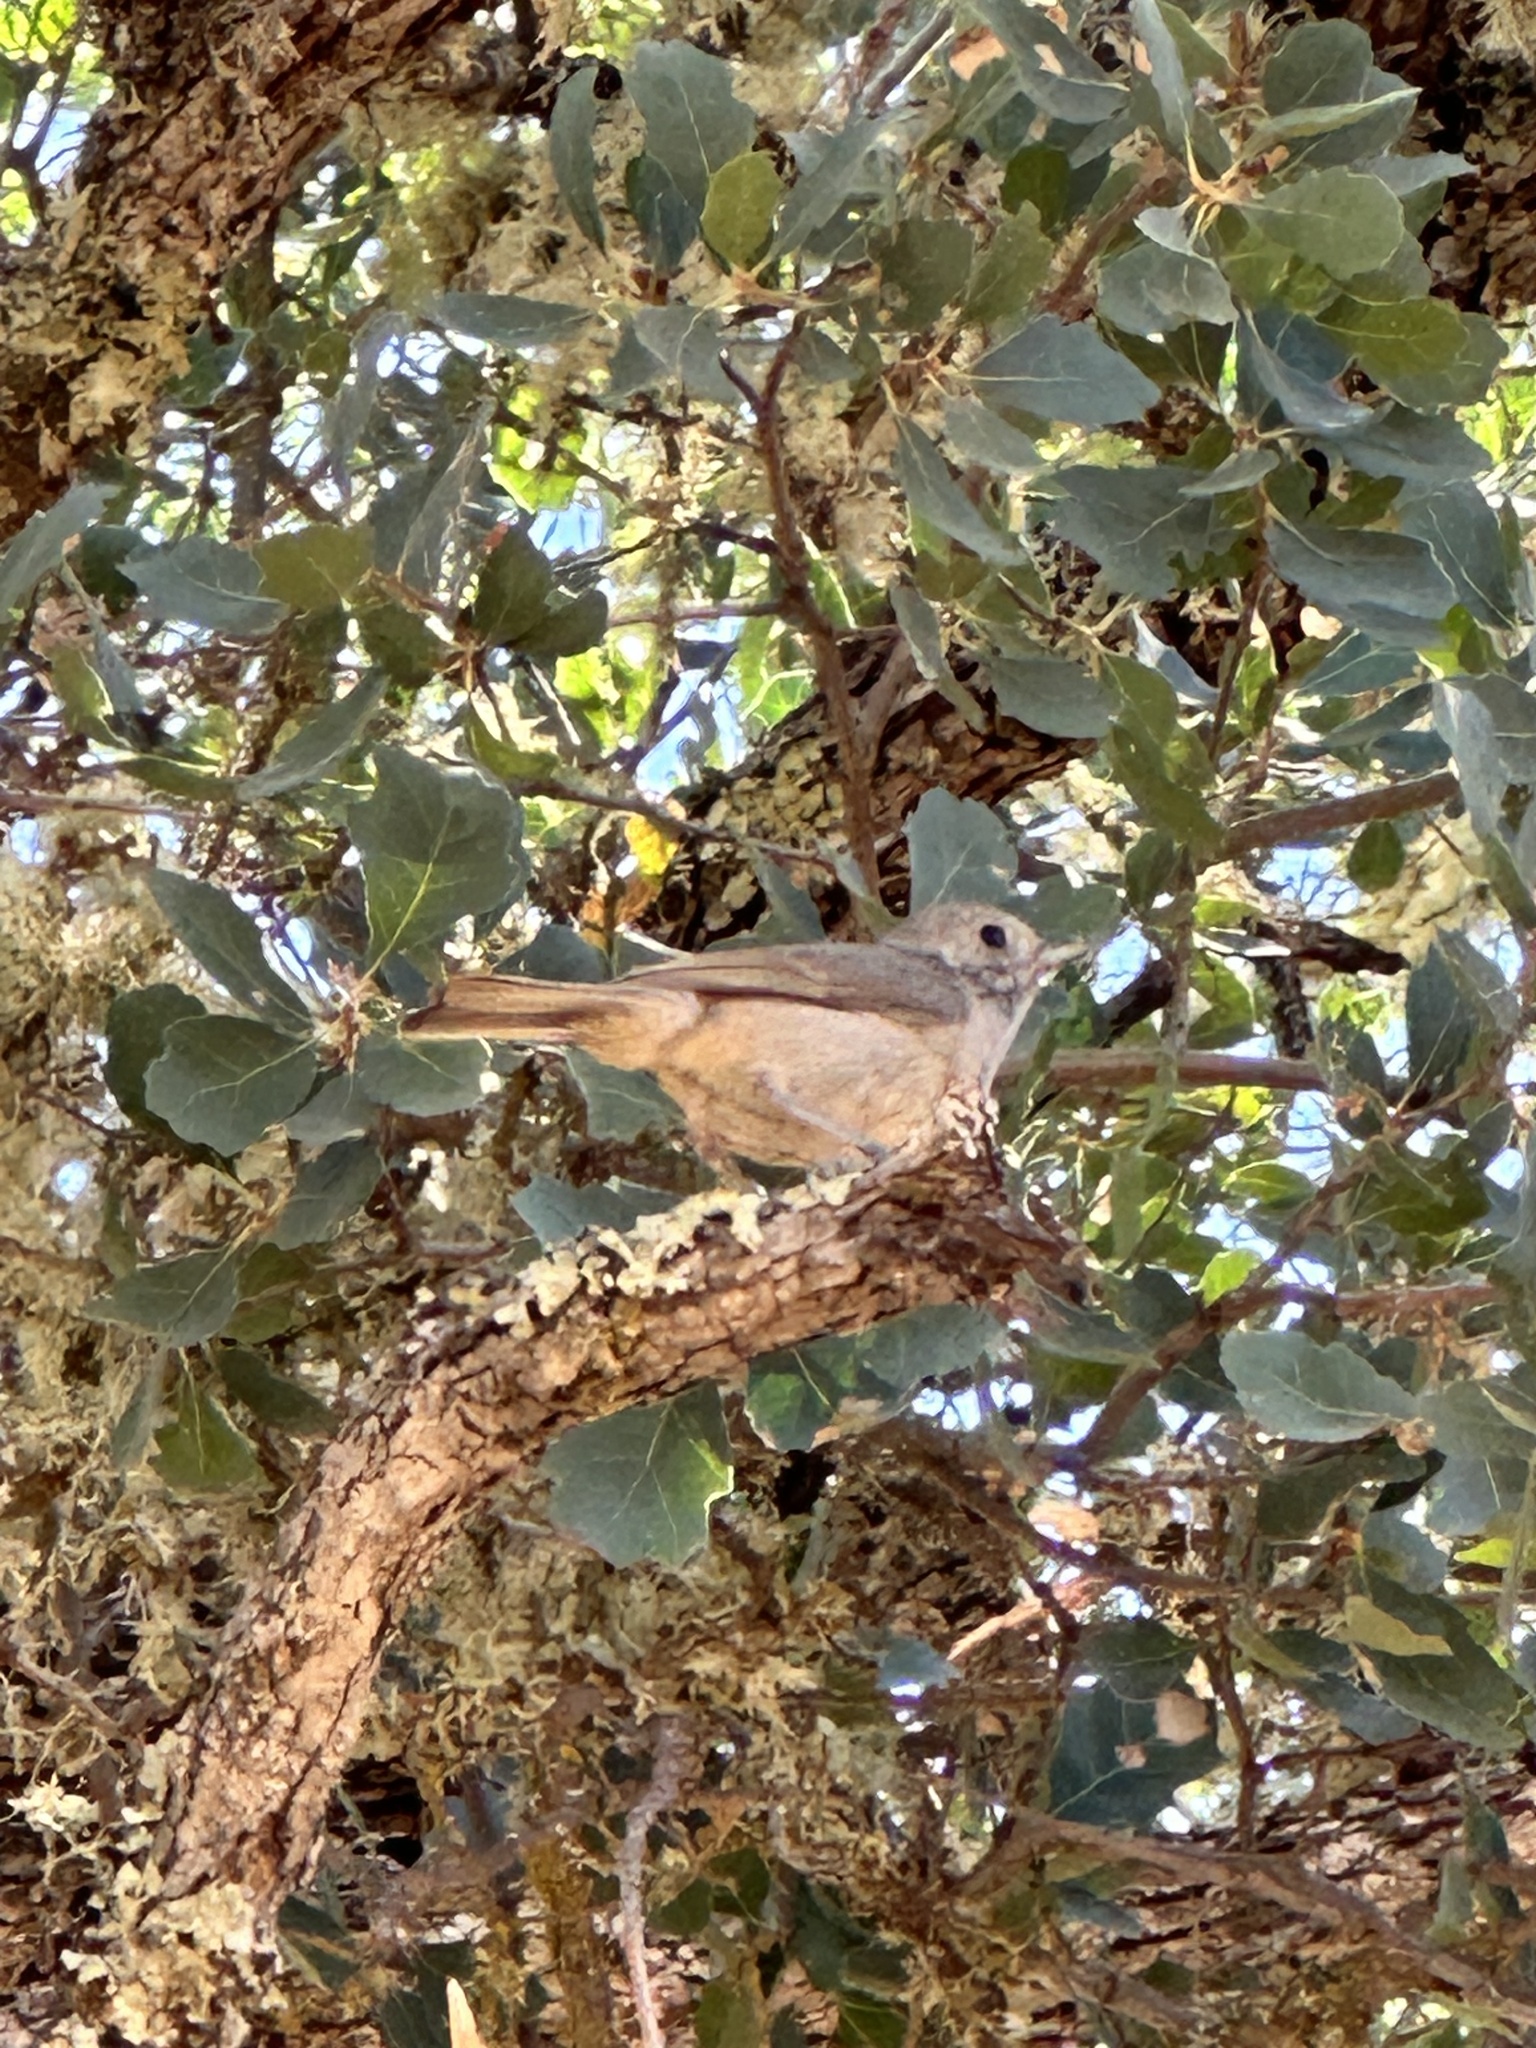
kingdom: Animalia
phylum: Chordata
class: Aves
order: Passeriformes
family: Paridae
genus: Baeolophus
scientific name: Baeolophus inornatus
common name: Oak titmouse
